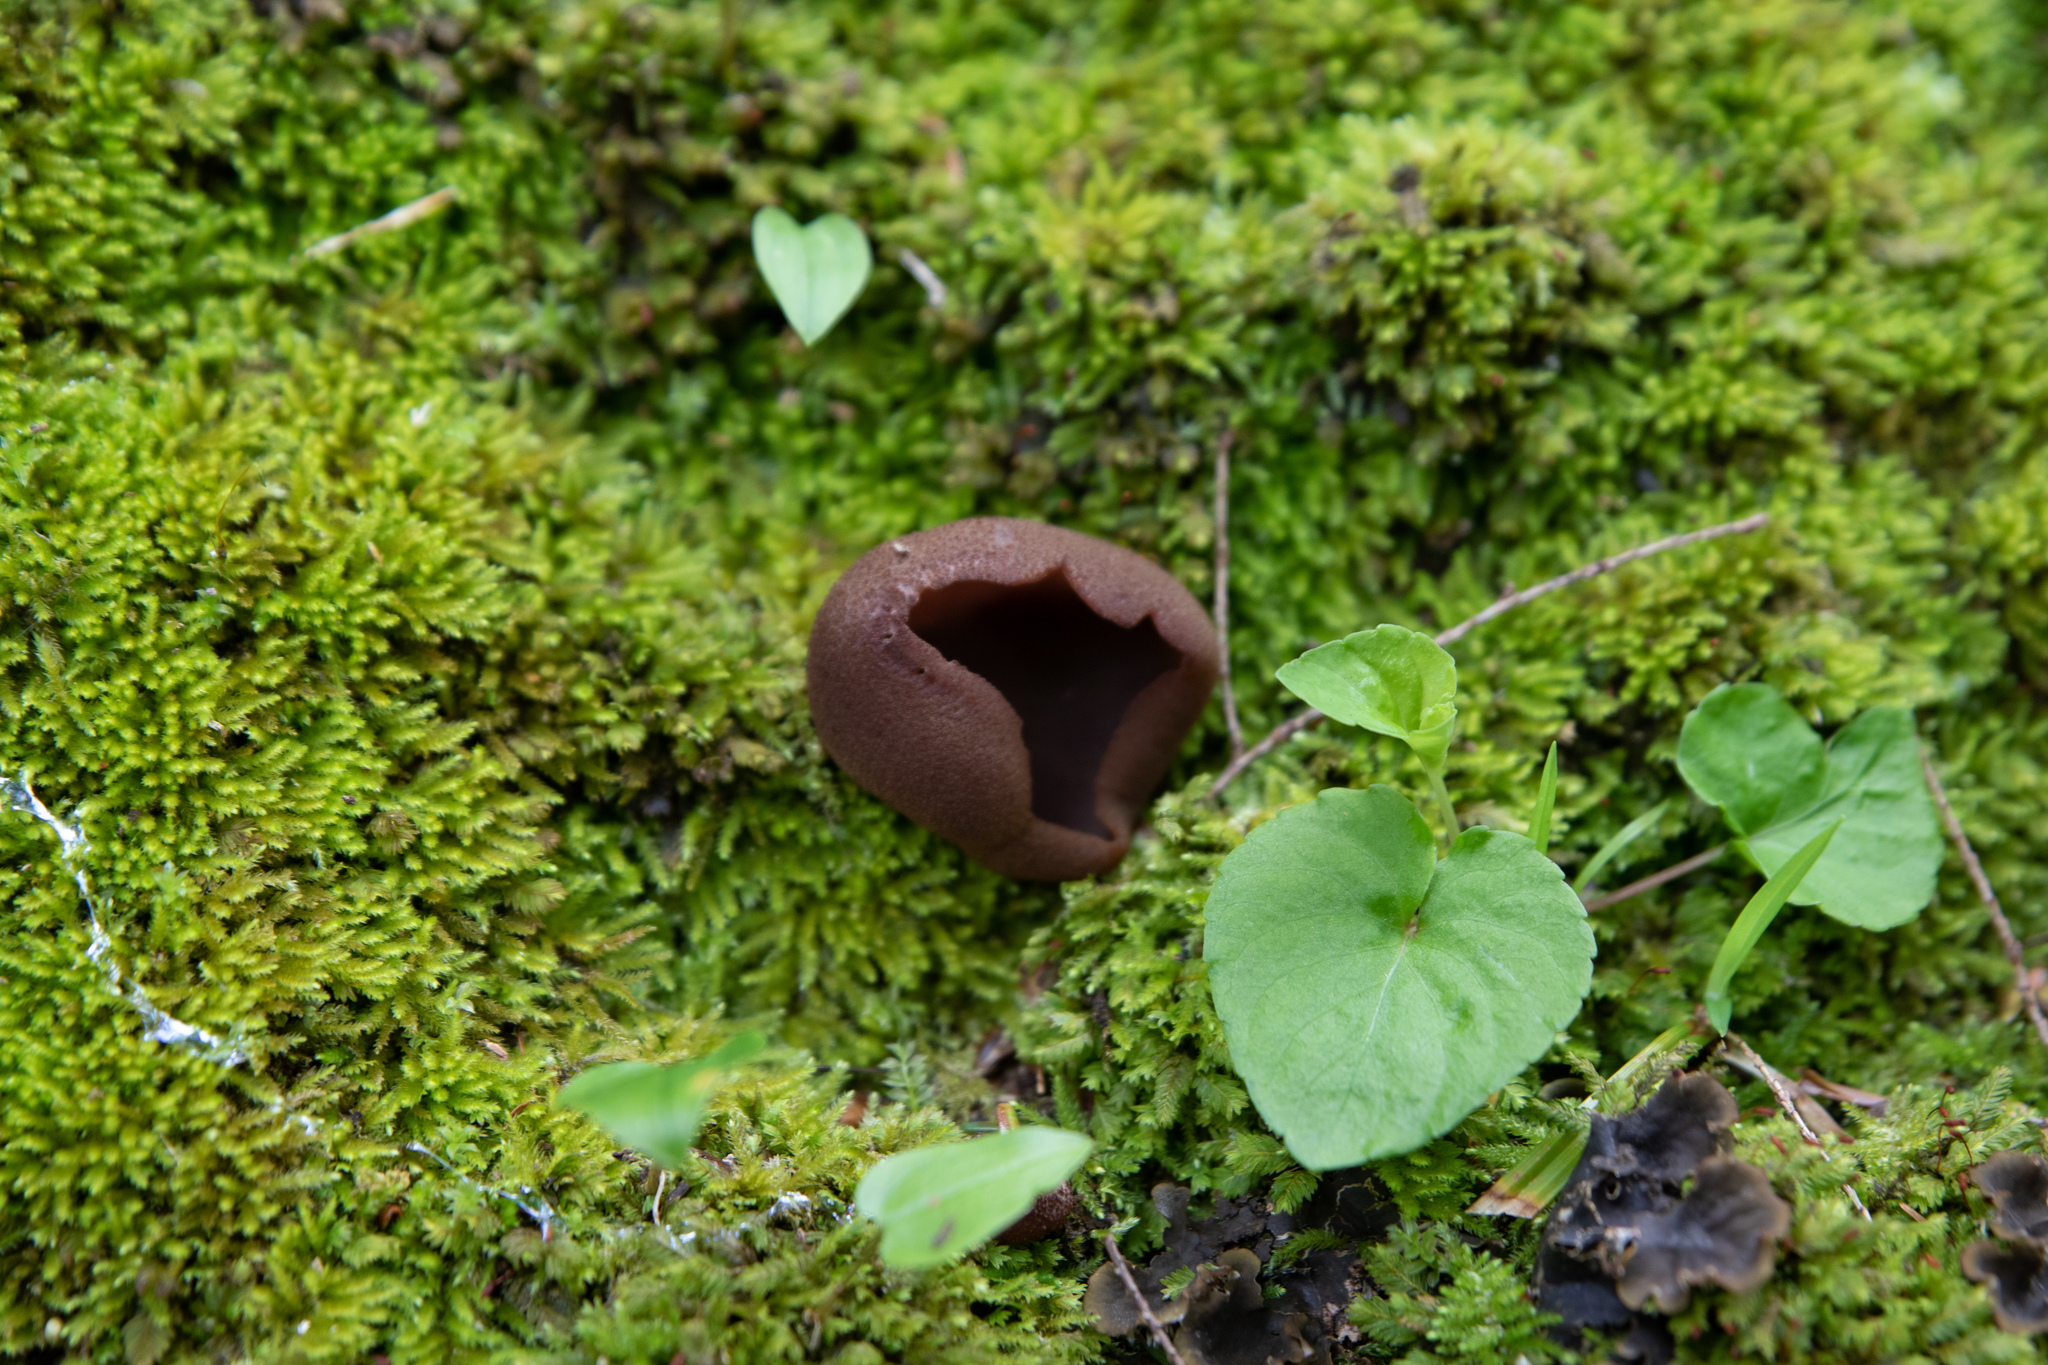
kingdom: Fungi
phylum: Ascomycota
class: Pezizomycetes
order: Pezizales
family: Pezizaceae
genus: Phylloscypha
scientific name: Phylloscypha phyllogena
